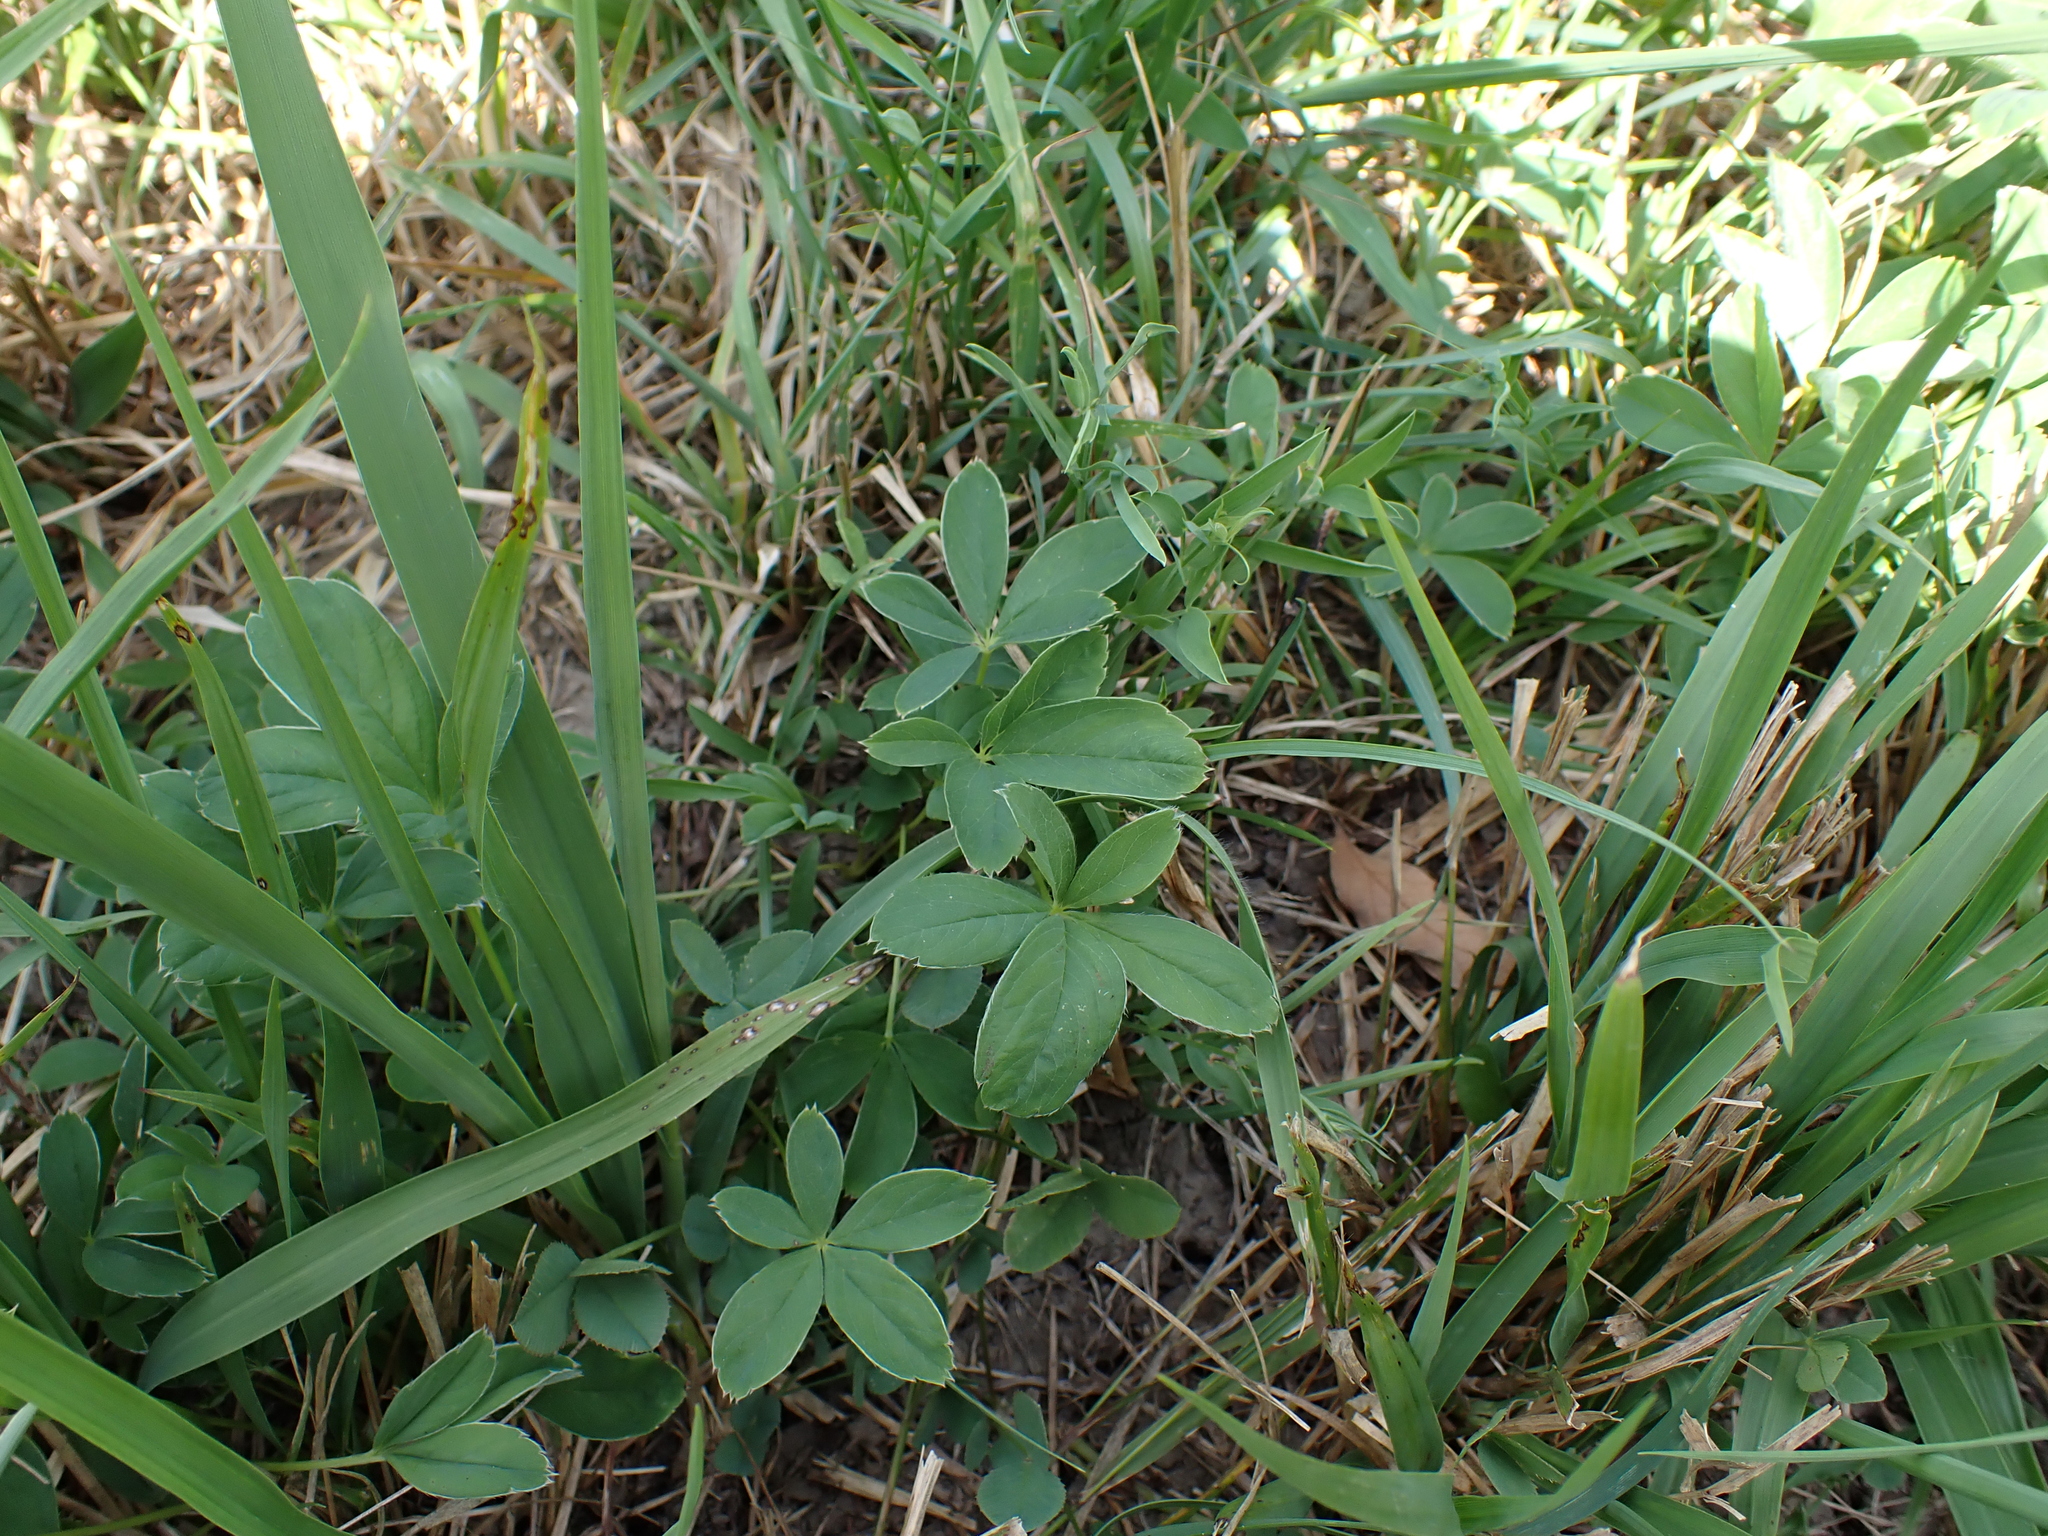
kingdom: Plantae
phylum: Tracheophyta
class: Magnoliopsida
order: Rosales
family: Rosaceae
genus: Potentilla
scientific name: Potentilla alba
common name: White cinquefoil
